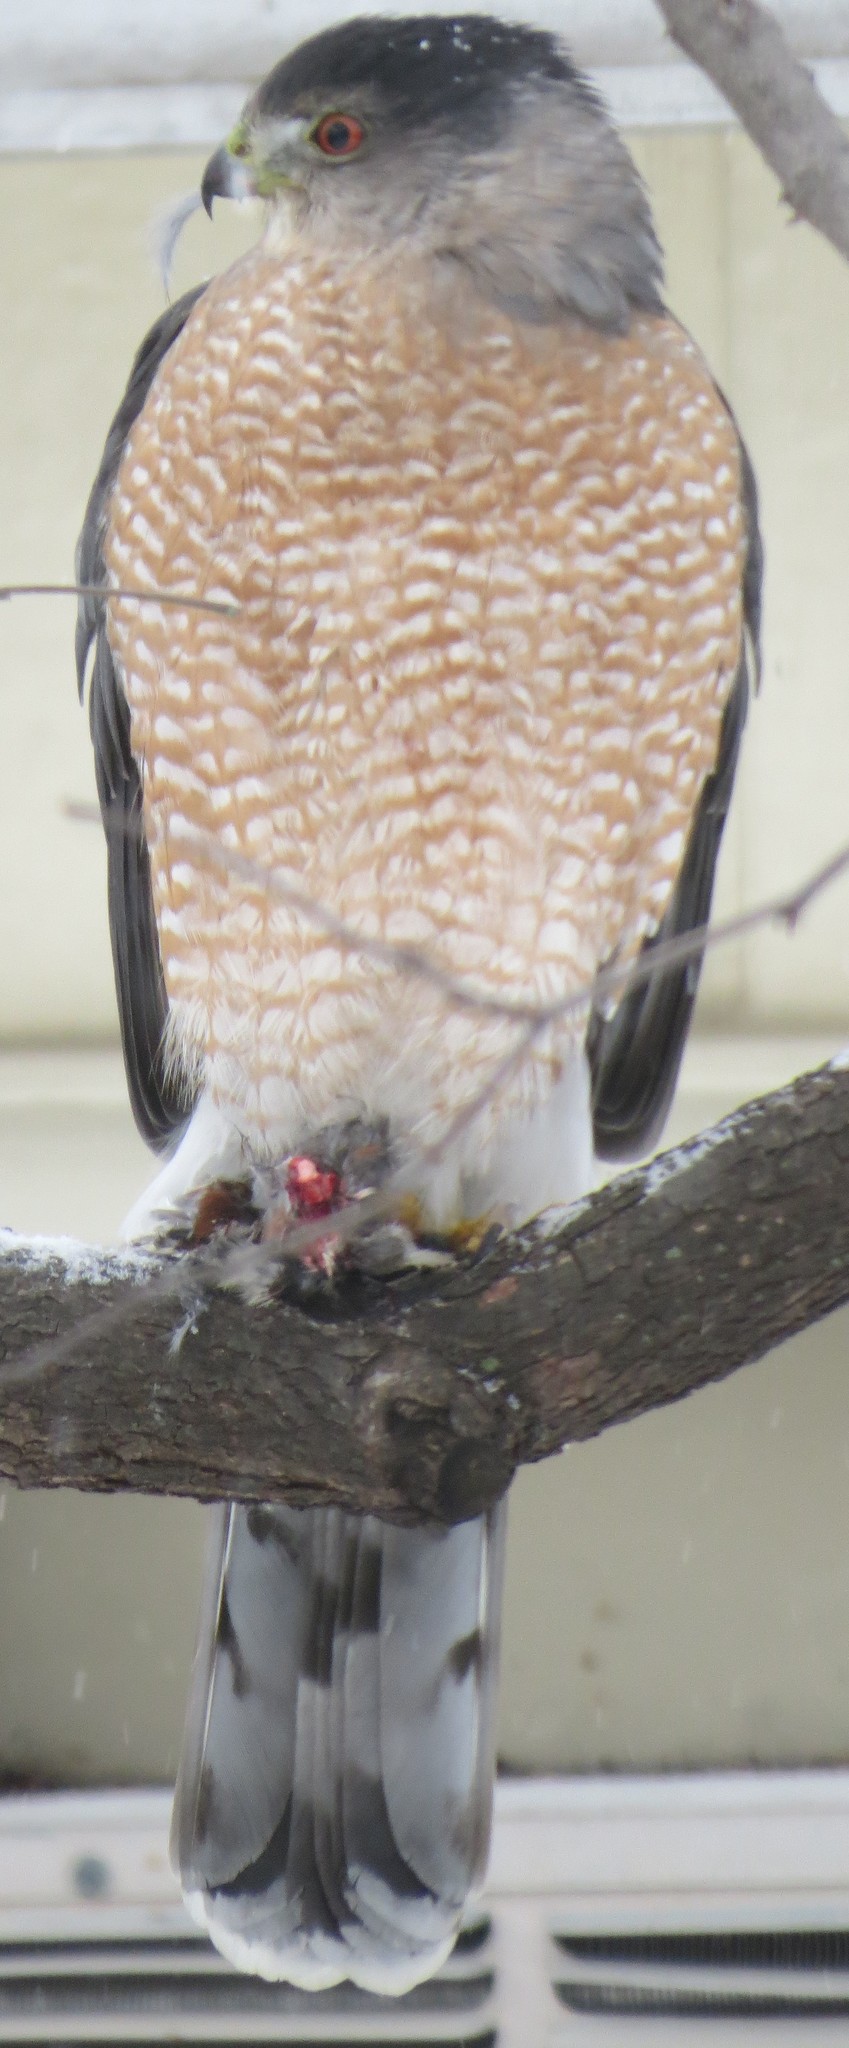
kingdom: Animalia
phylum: Chordata
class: Aves
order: Accipitriformes
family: Accipitridae
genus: Accipiter
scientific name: Accipiter cooperii
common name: Cooper's hawk
